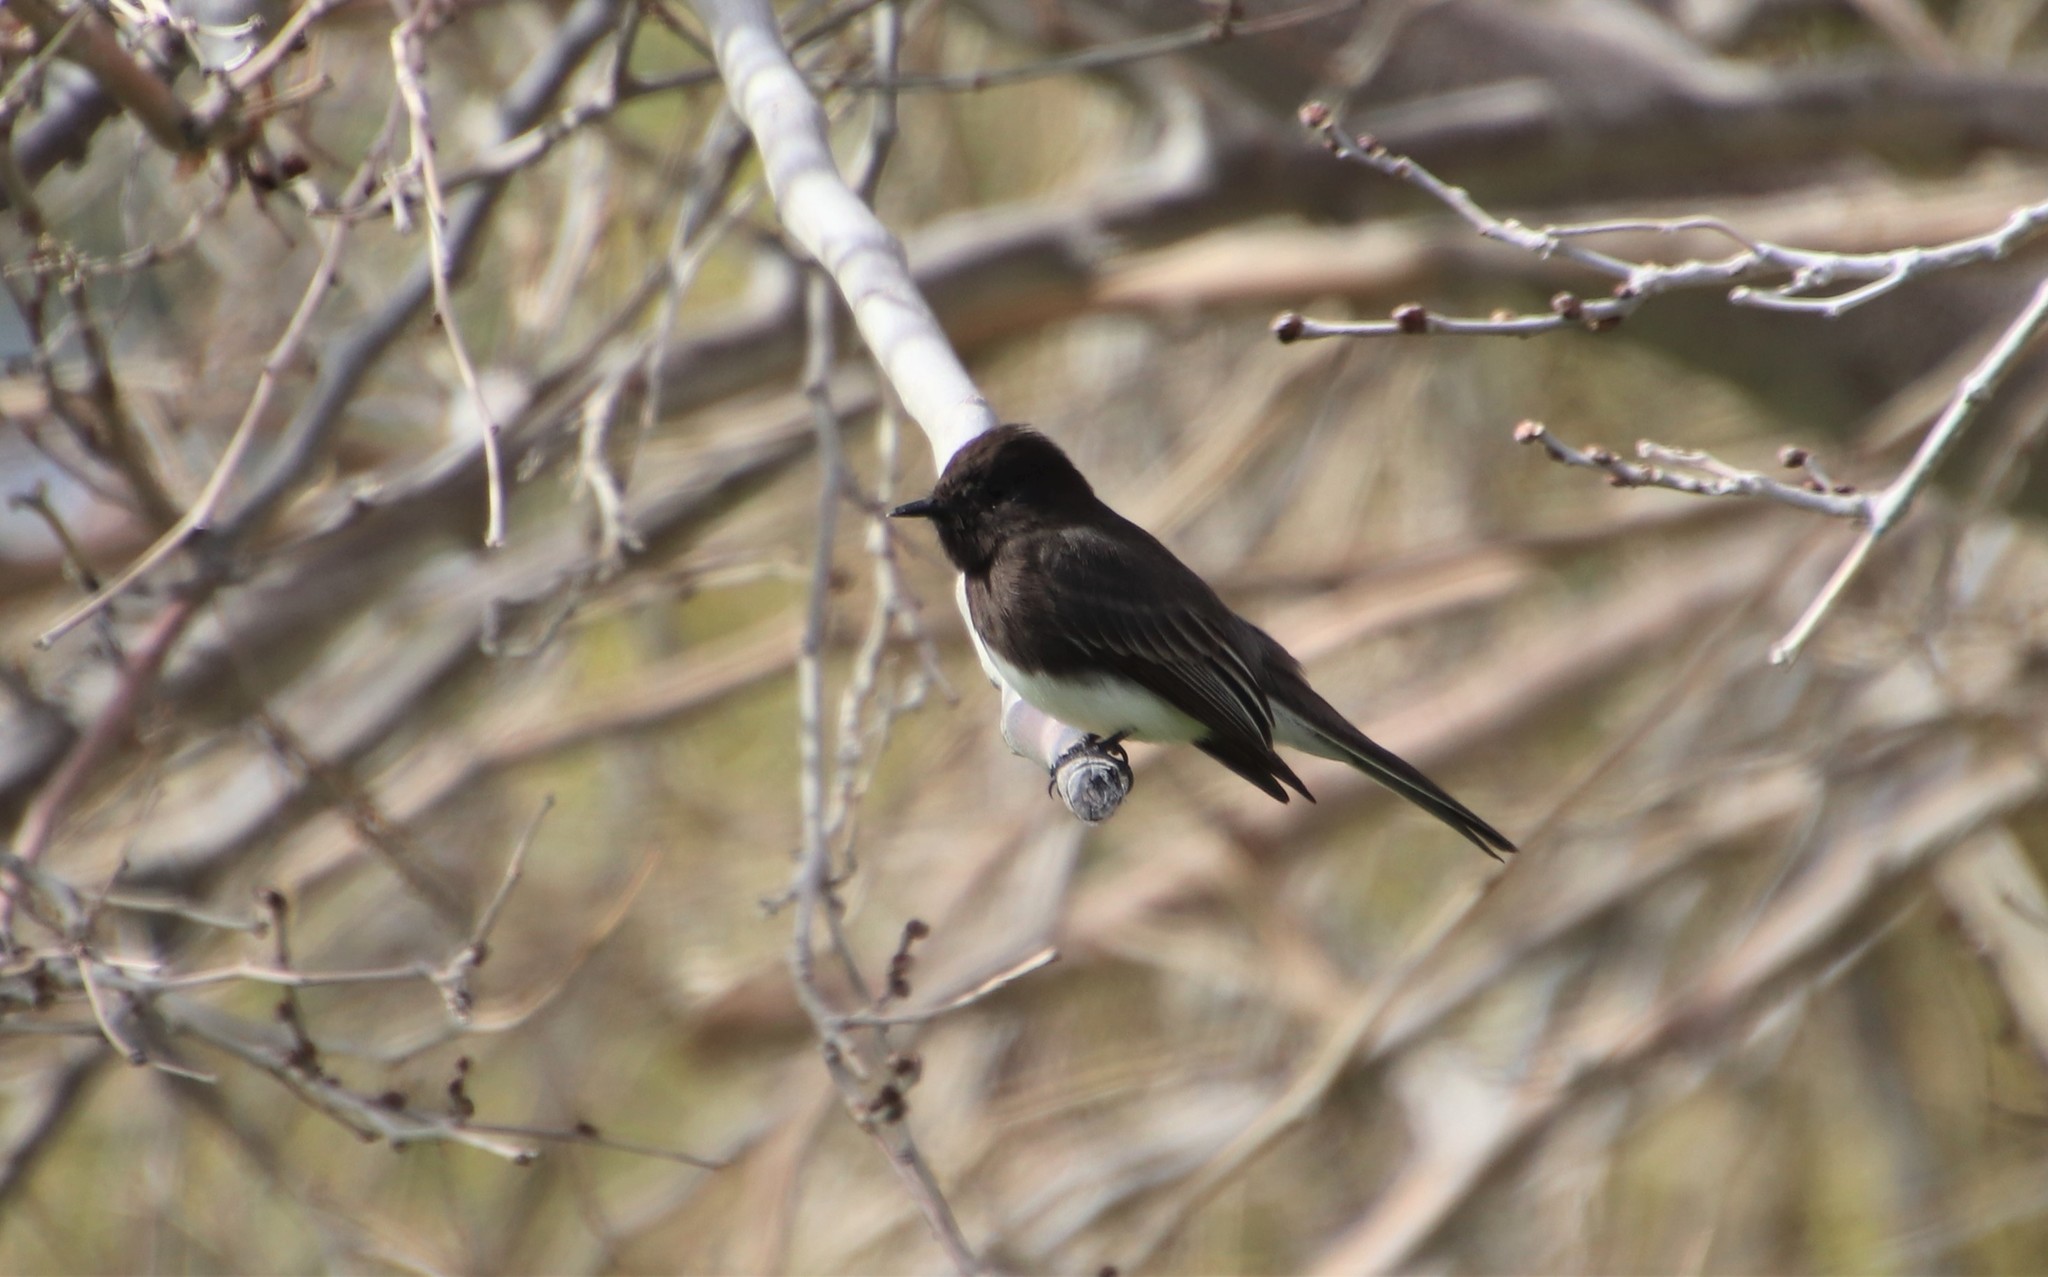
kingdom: Animalia
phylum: Chordata
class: Aves
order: Passeriformes
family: Tyrannidae
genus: Sayornis
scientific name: Sayornis nigricans
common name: Black phoebe
